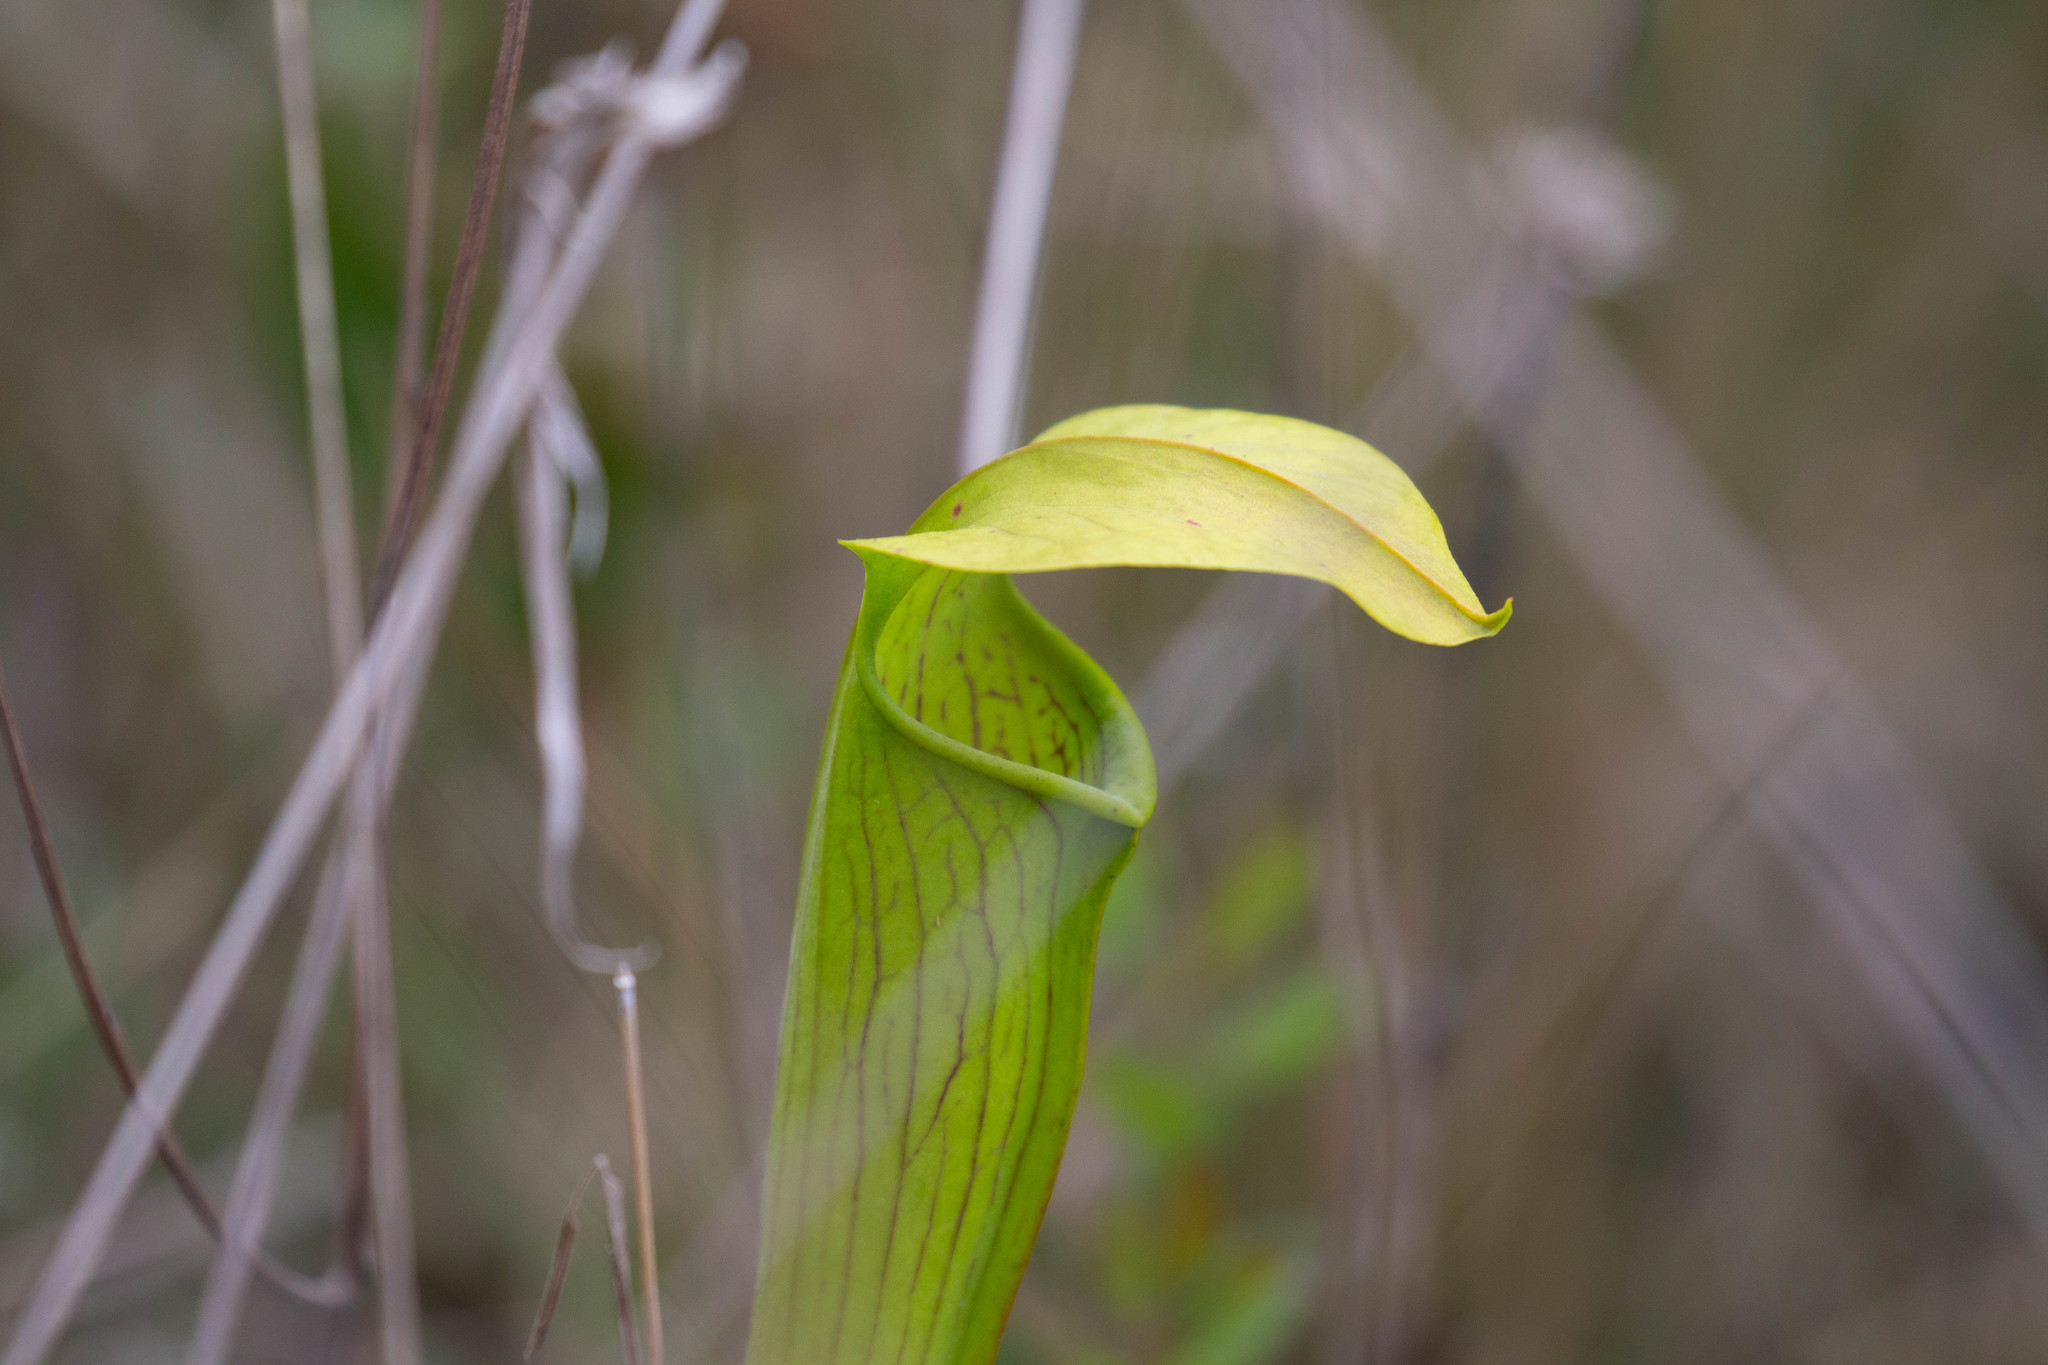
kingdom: Plantae
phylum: Tracheophyta
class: Magnoliopsida
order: Ericales
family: Sarraceniaceae
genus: Sarracenia
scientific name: Sarracenia alata
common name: Yellow trumpets
